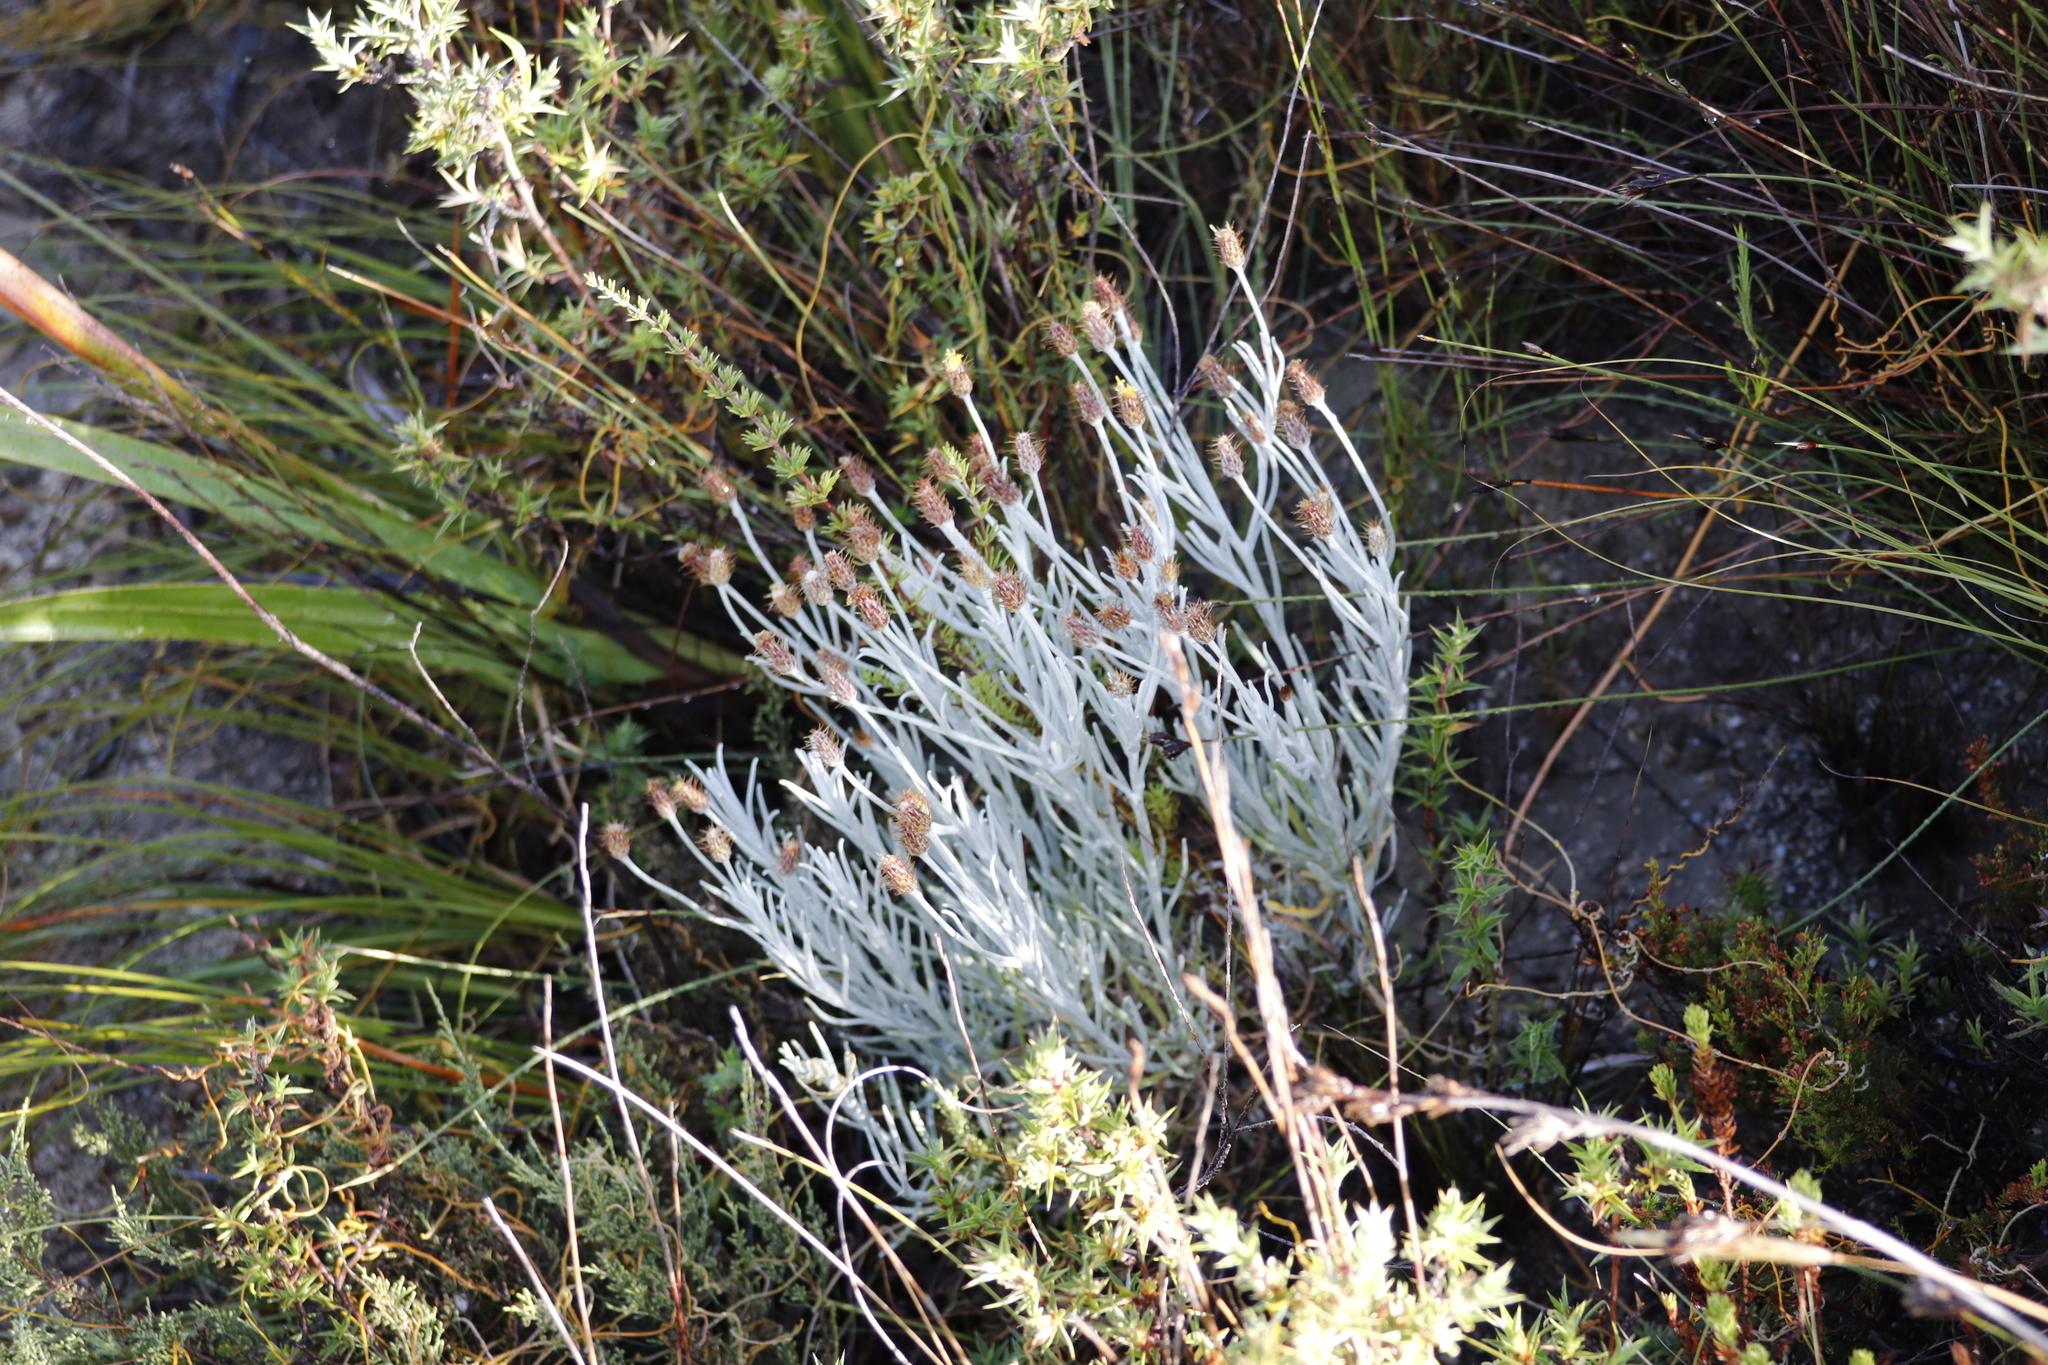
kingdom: Plantae
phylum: Tracheophyta
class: Magnoliopsida
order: Asterales
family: Asteraceae
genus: Syncarpha
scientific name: Syncarpha gnaphaloides
